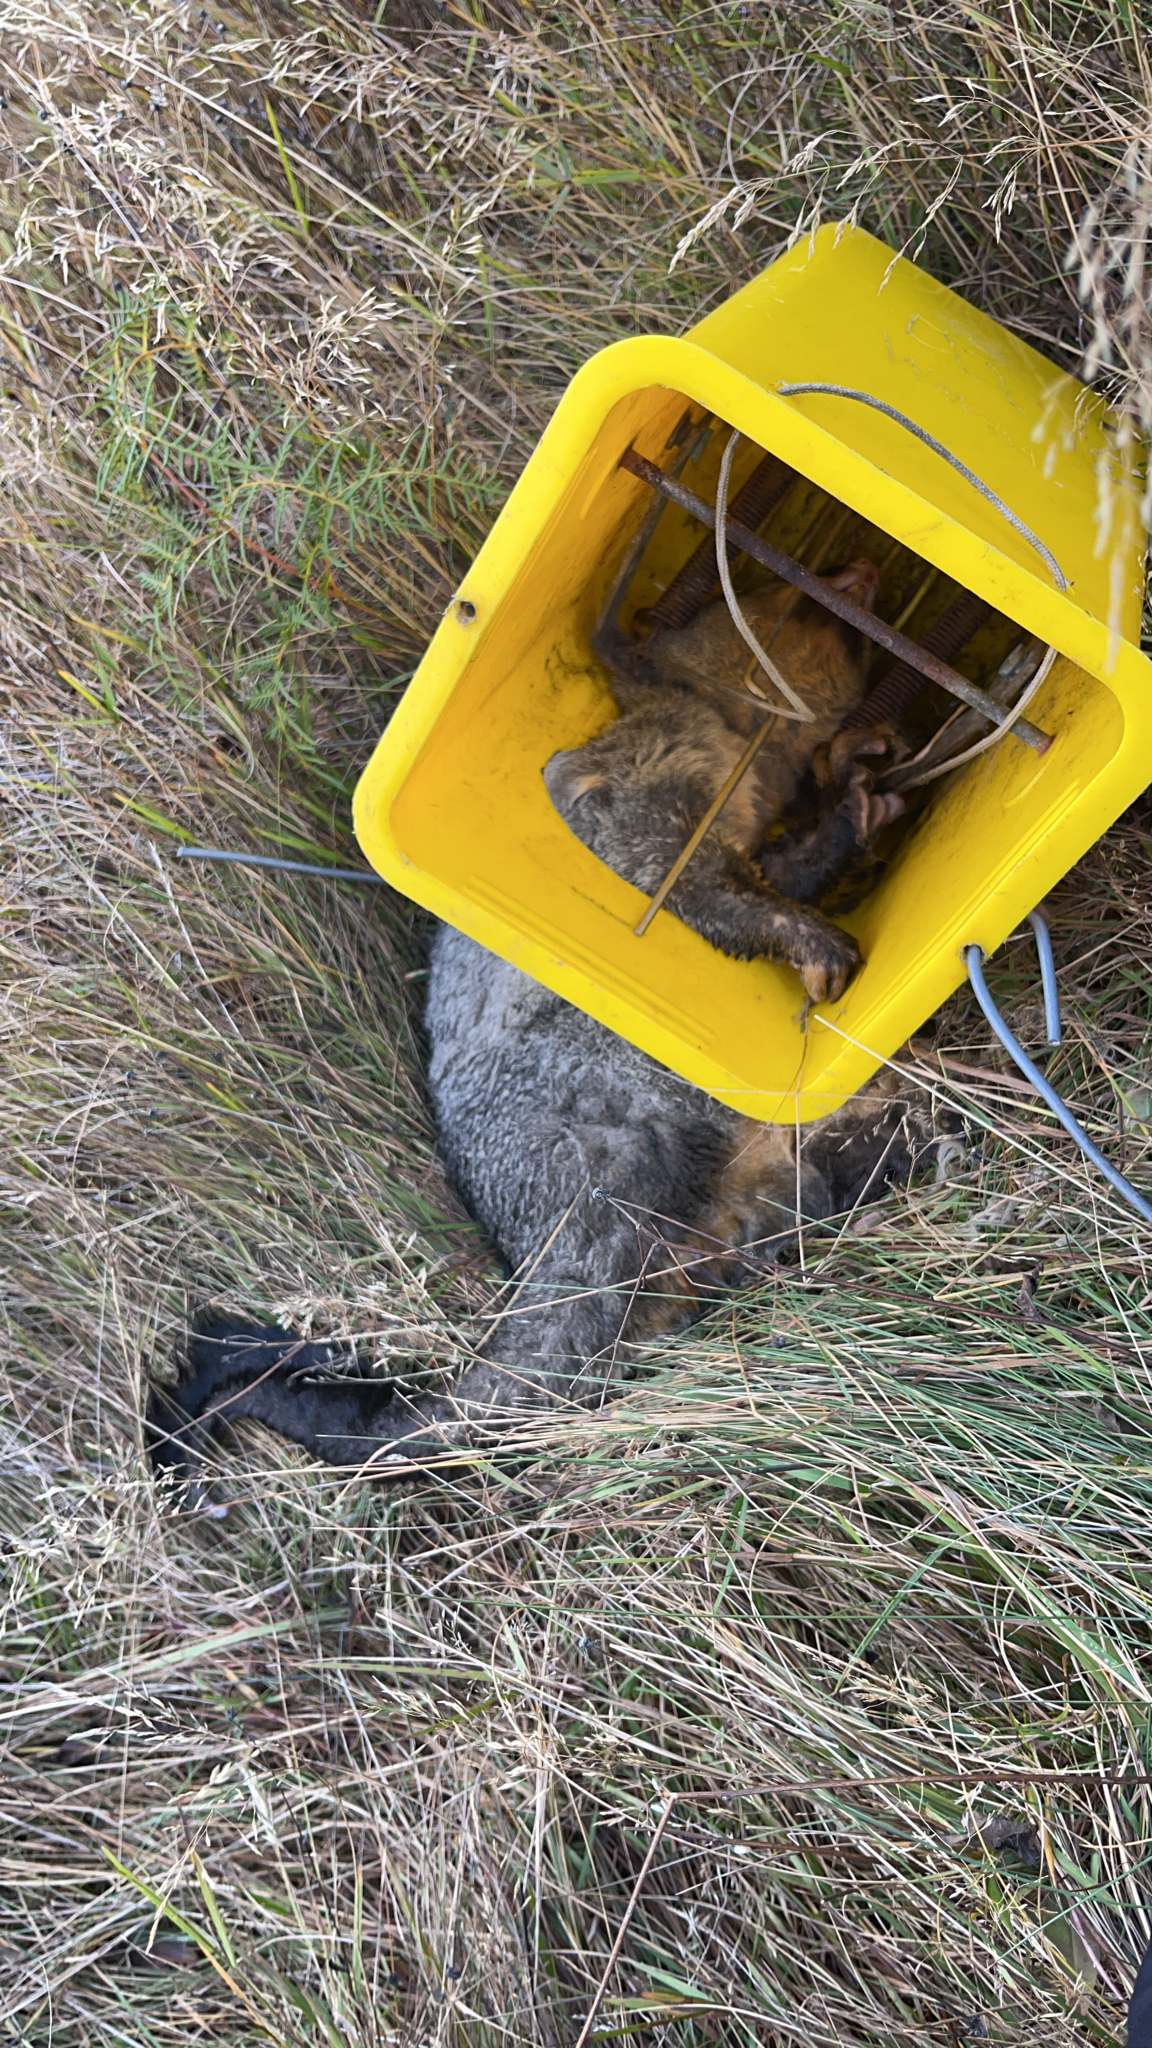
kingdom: Animalia
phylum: Chordata
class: Mammalia
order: Diprotodontia
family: Phalangeridae
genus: Trichosurus
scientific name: Trichosurus vulpecula
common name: Common brushtail
